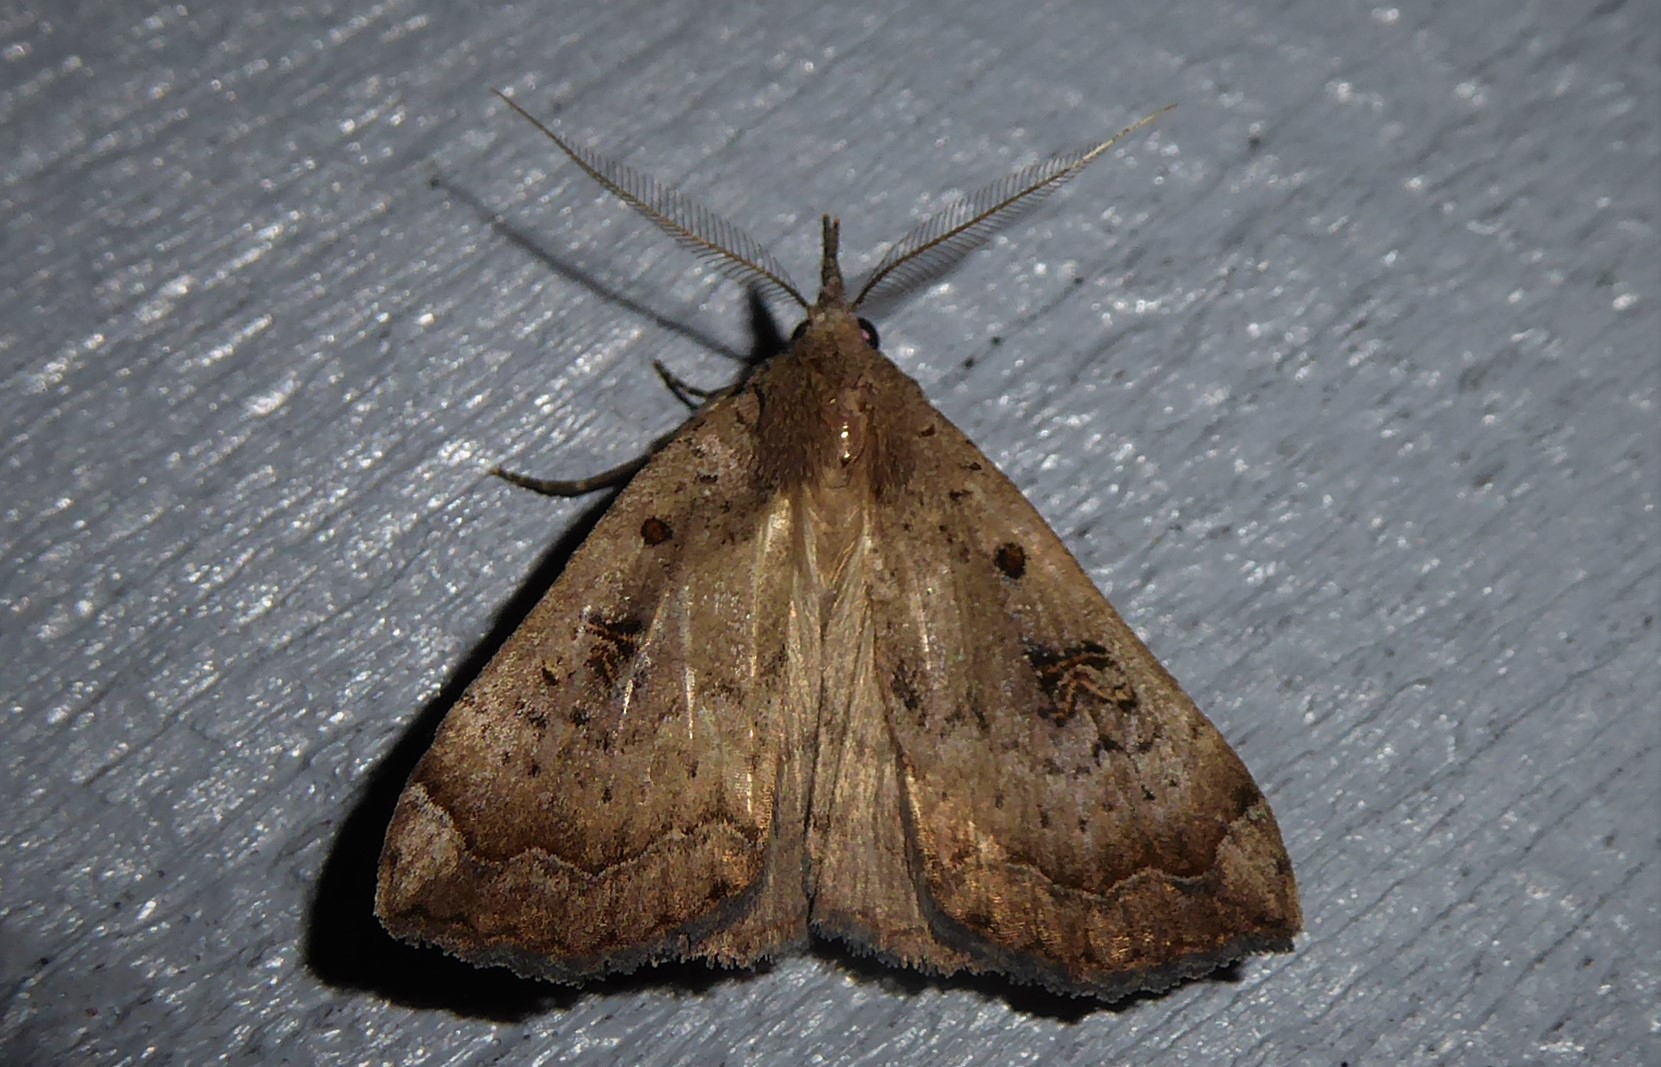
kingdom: Animalia
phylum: Arthropoda
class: Insecta
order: Lepidoptera
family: Erebidae
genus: Rhapsa
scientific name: Rhapsa scotosialis
